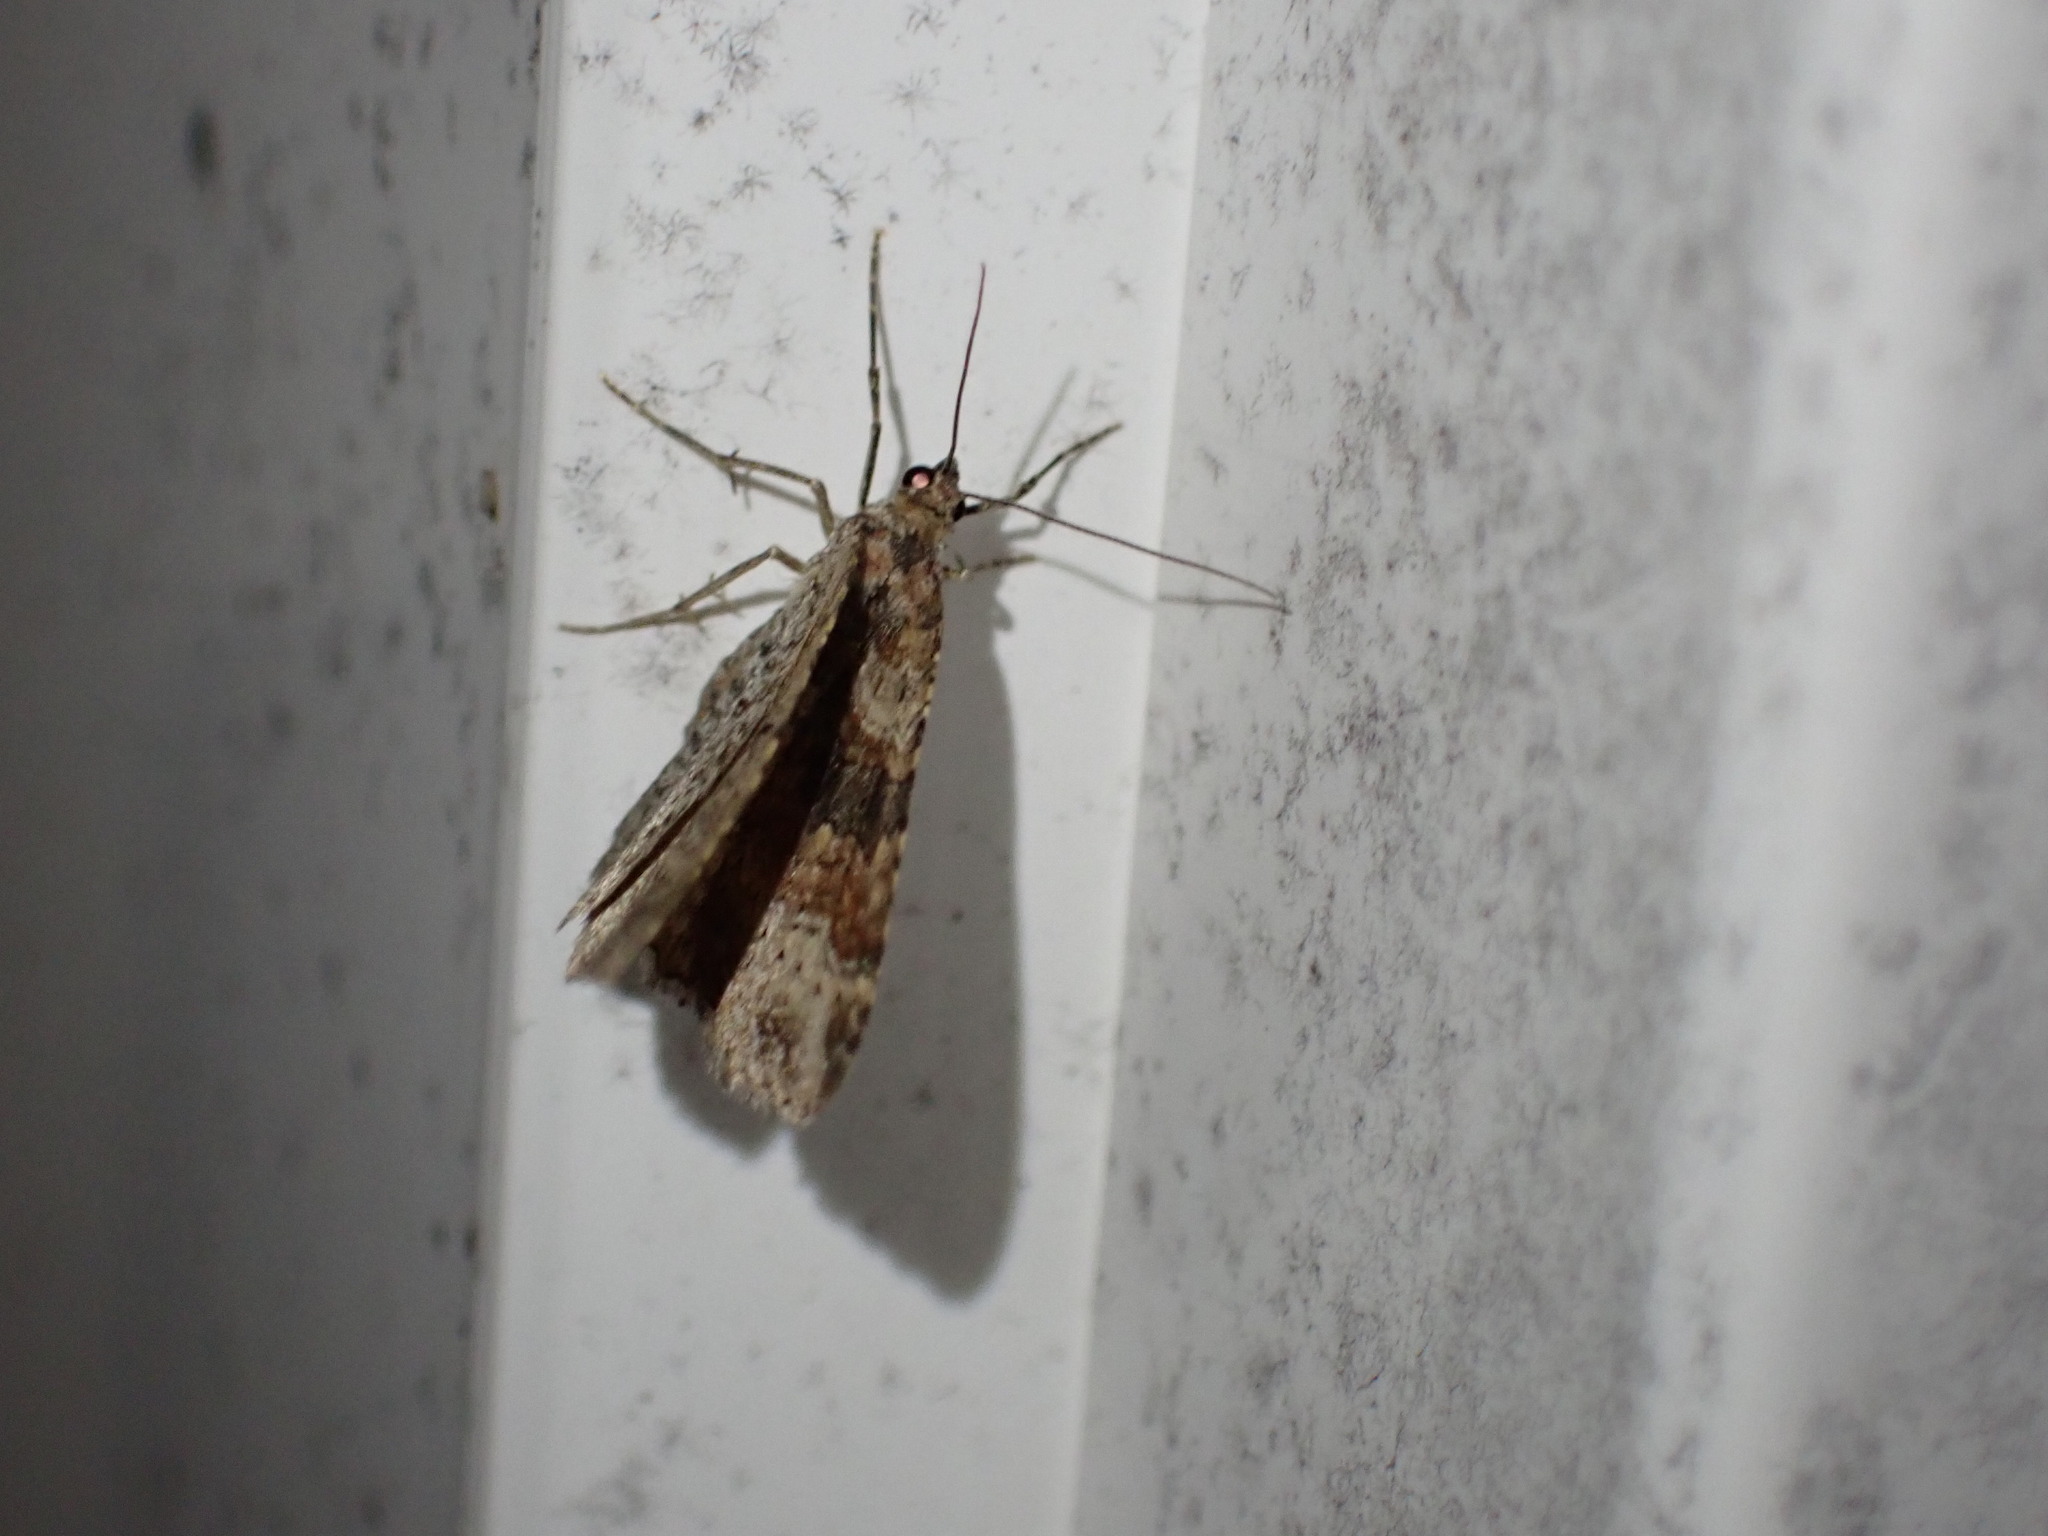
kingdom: Animalia
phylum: Arthropoda
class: Insecta
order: Lepidoptera
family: Geometridae
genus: Costaconvexa
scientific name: Costaconvexa centrostrigaria
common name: Bent-line carpet
